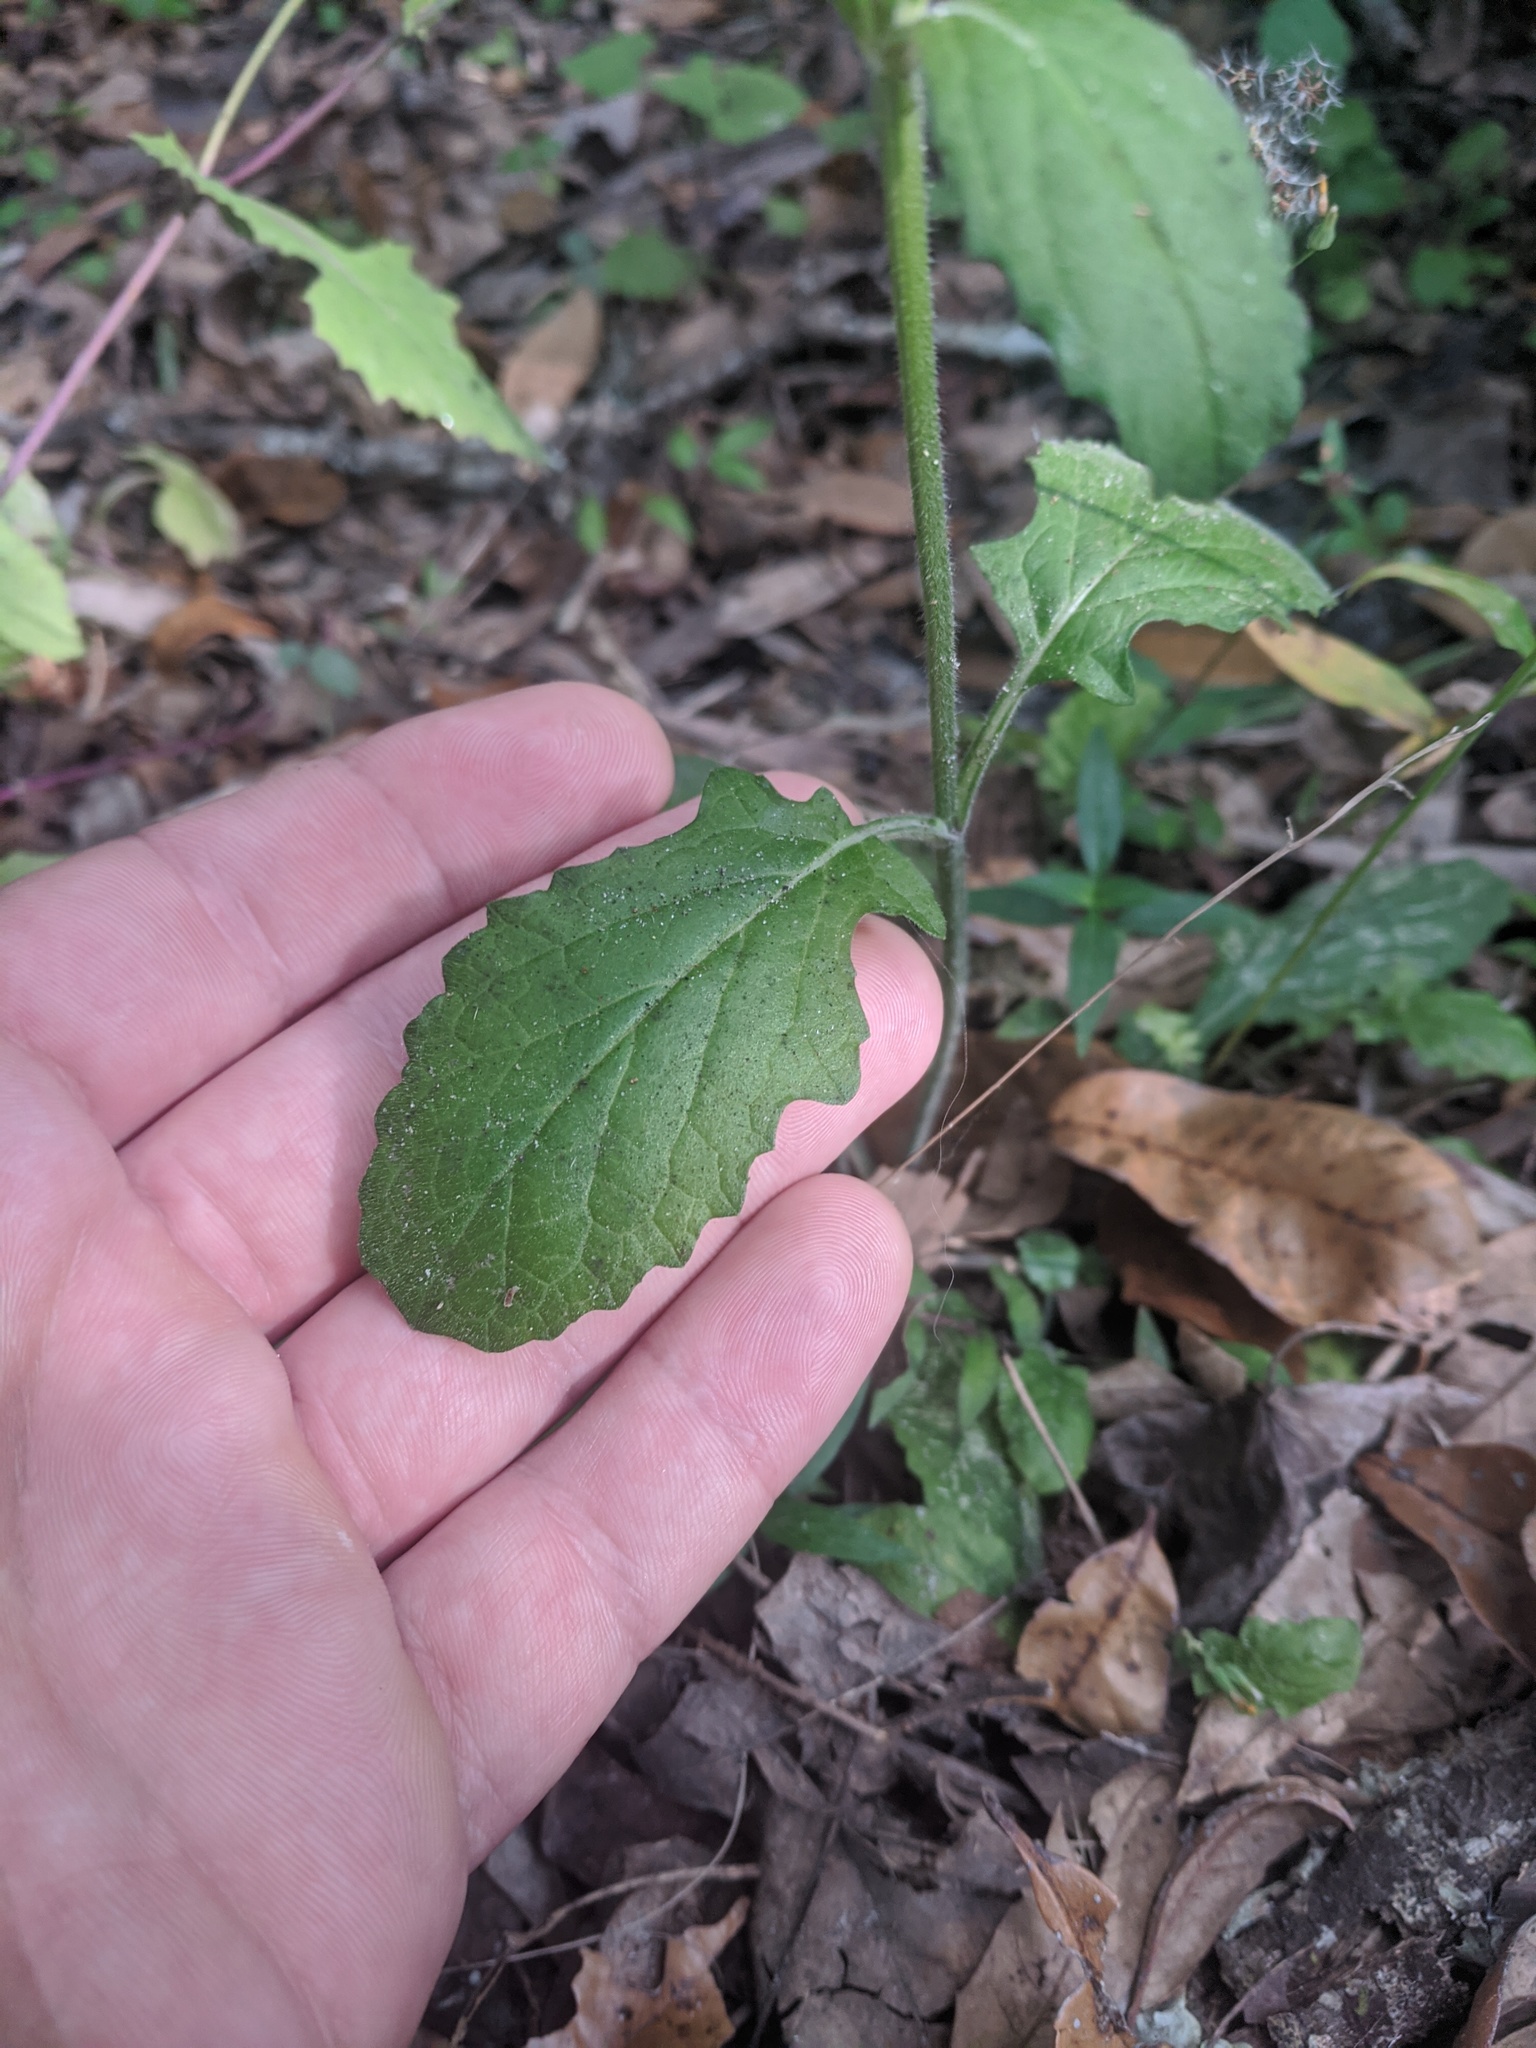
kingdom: Plantae
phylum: Tracheophyta
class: Magnoliopsida
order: Lamiales
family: Lamiaceae
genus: Salvia
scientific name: Salvia lyrata
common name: Cancerweed
